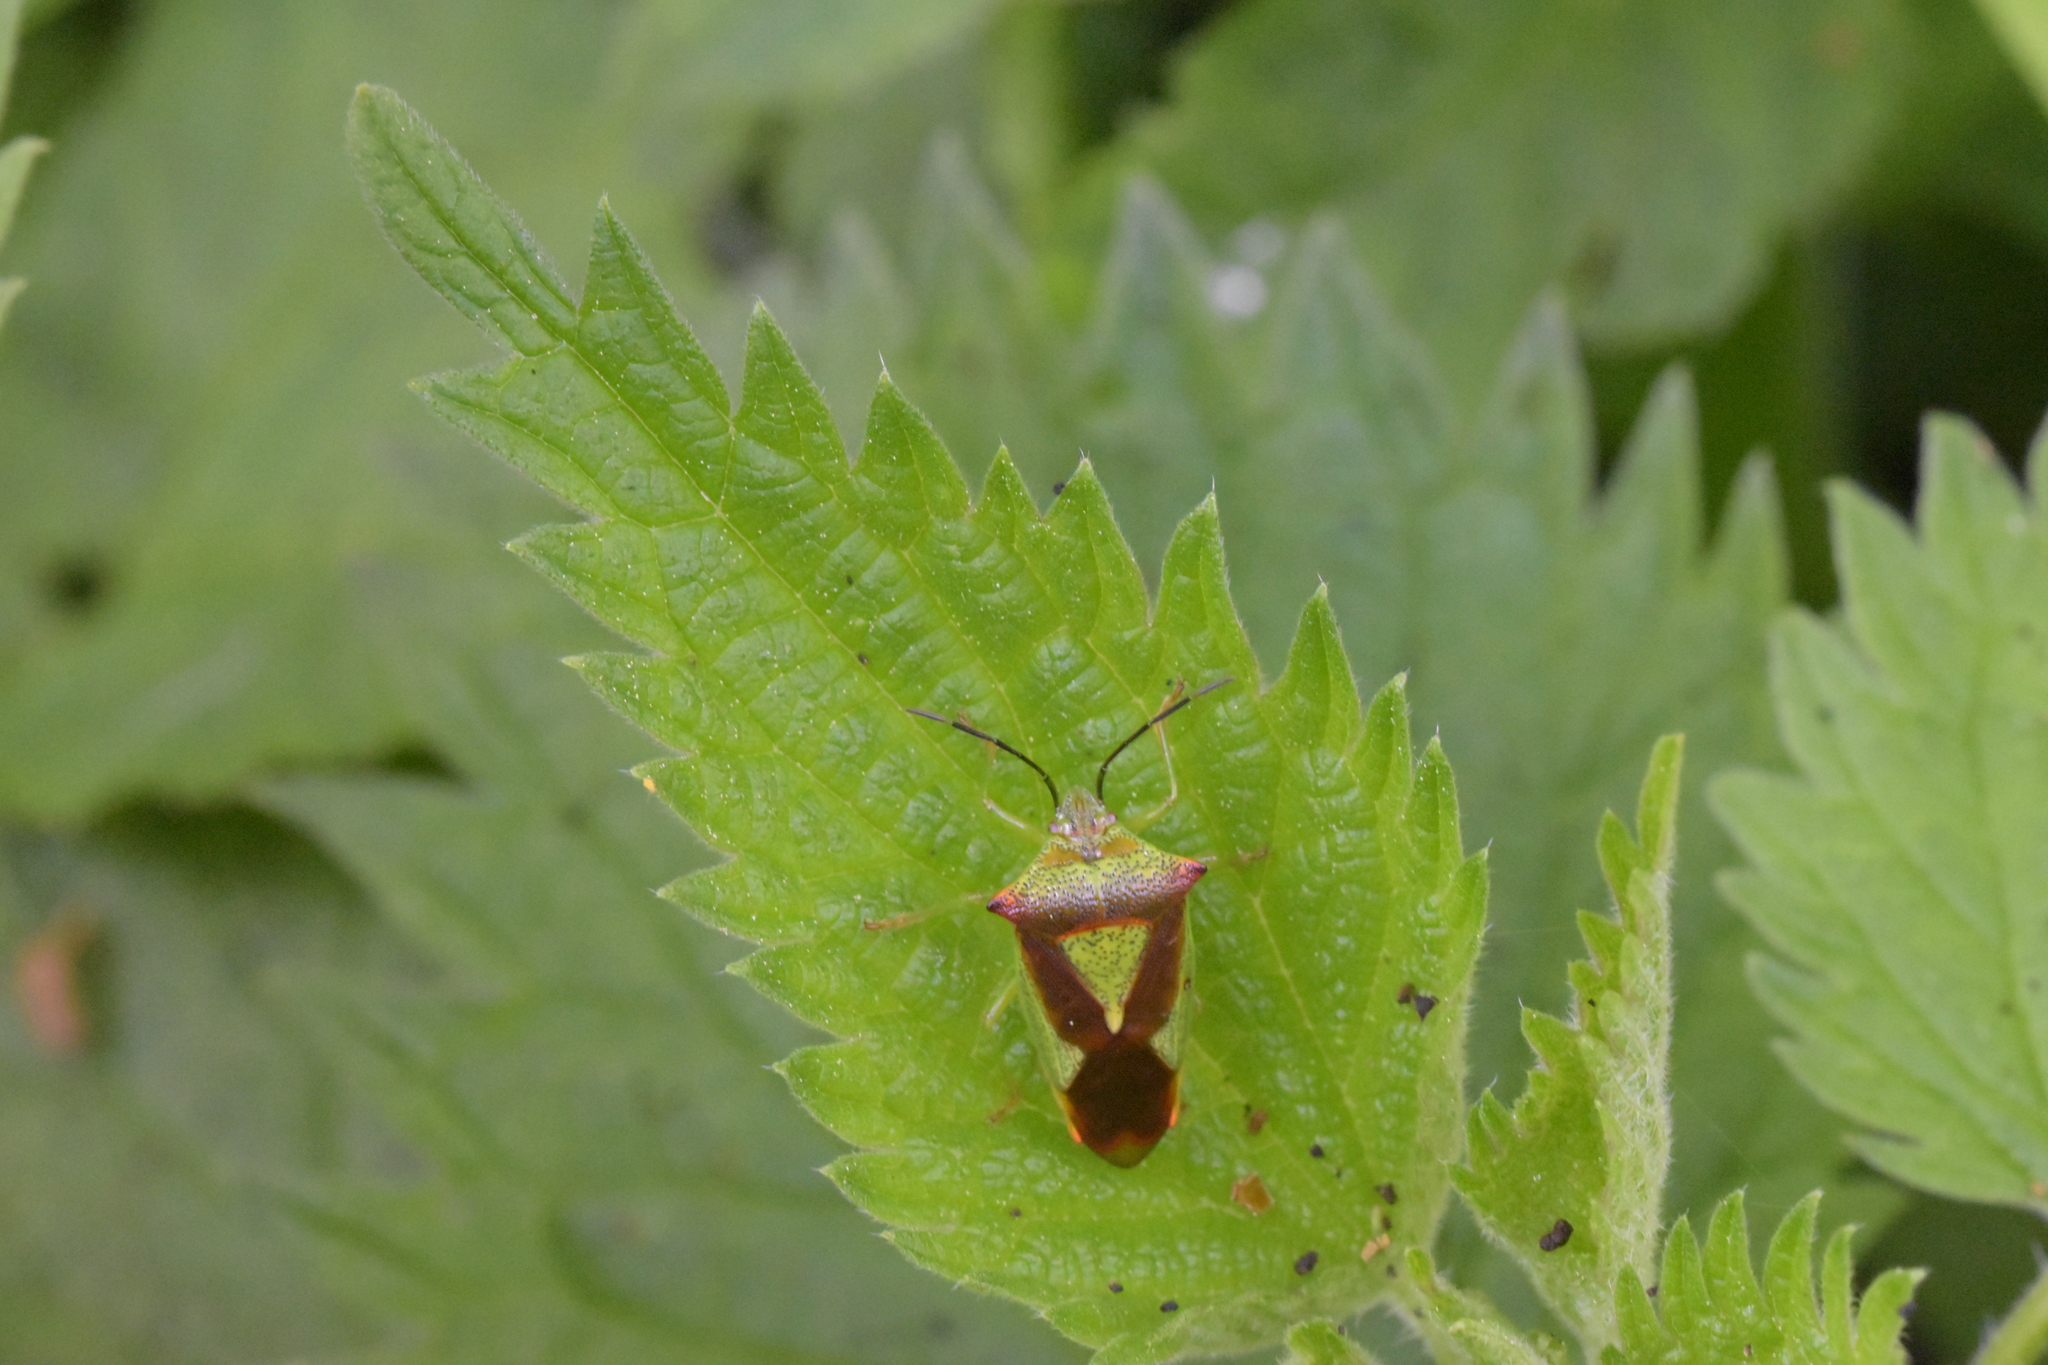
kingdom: Animalia
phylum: Arthropoda
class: Insecta
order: Hemiptera
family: Acanthosomatidae
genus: Acanthosoma
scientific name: Acanthosoma haemorrhoidale
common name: Hawthorn shieldbug
